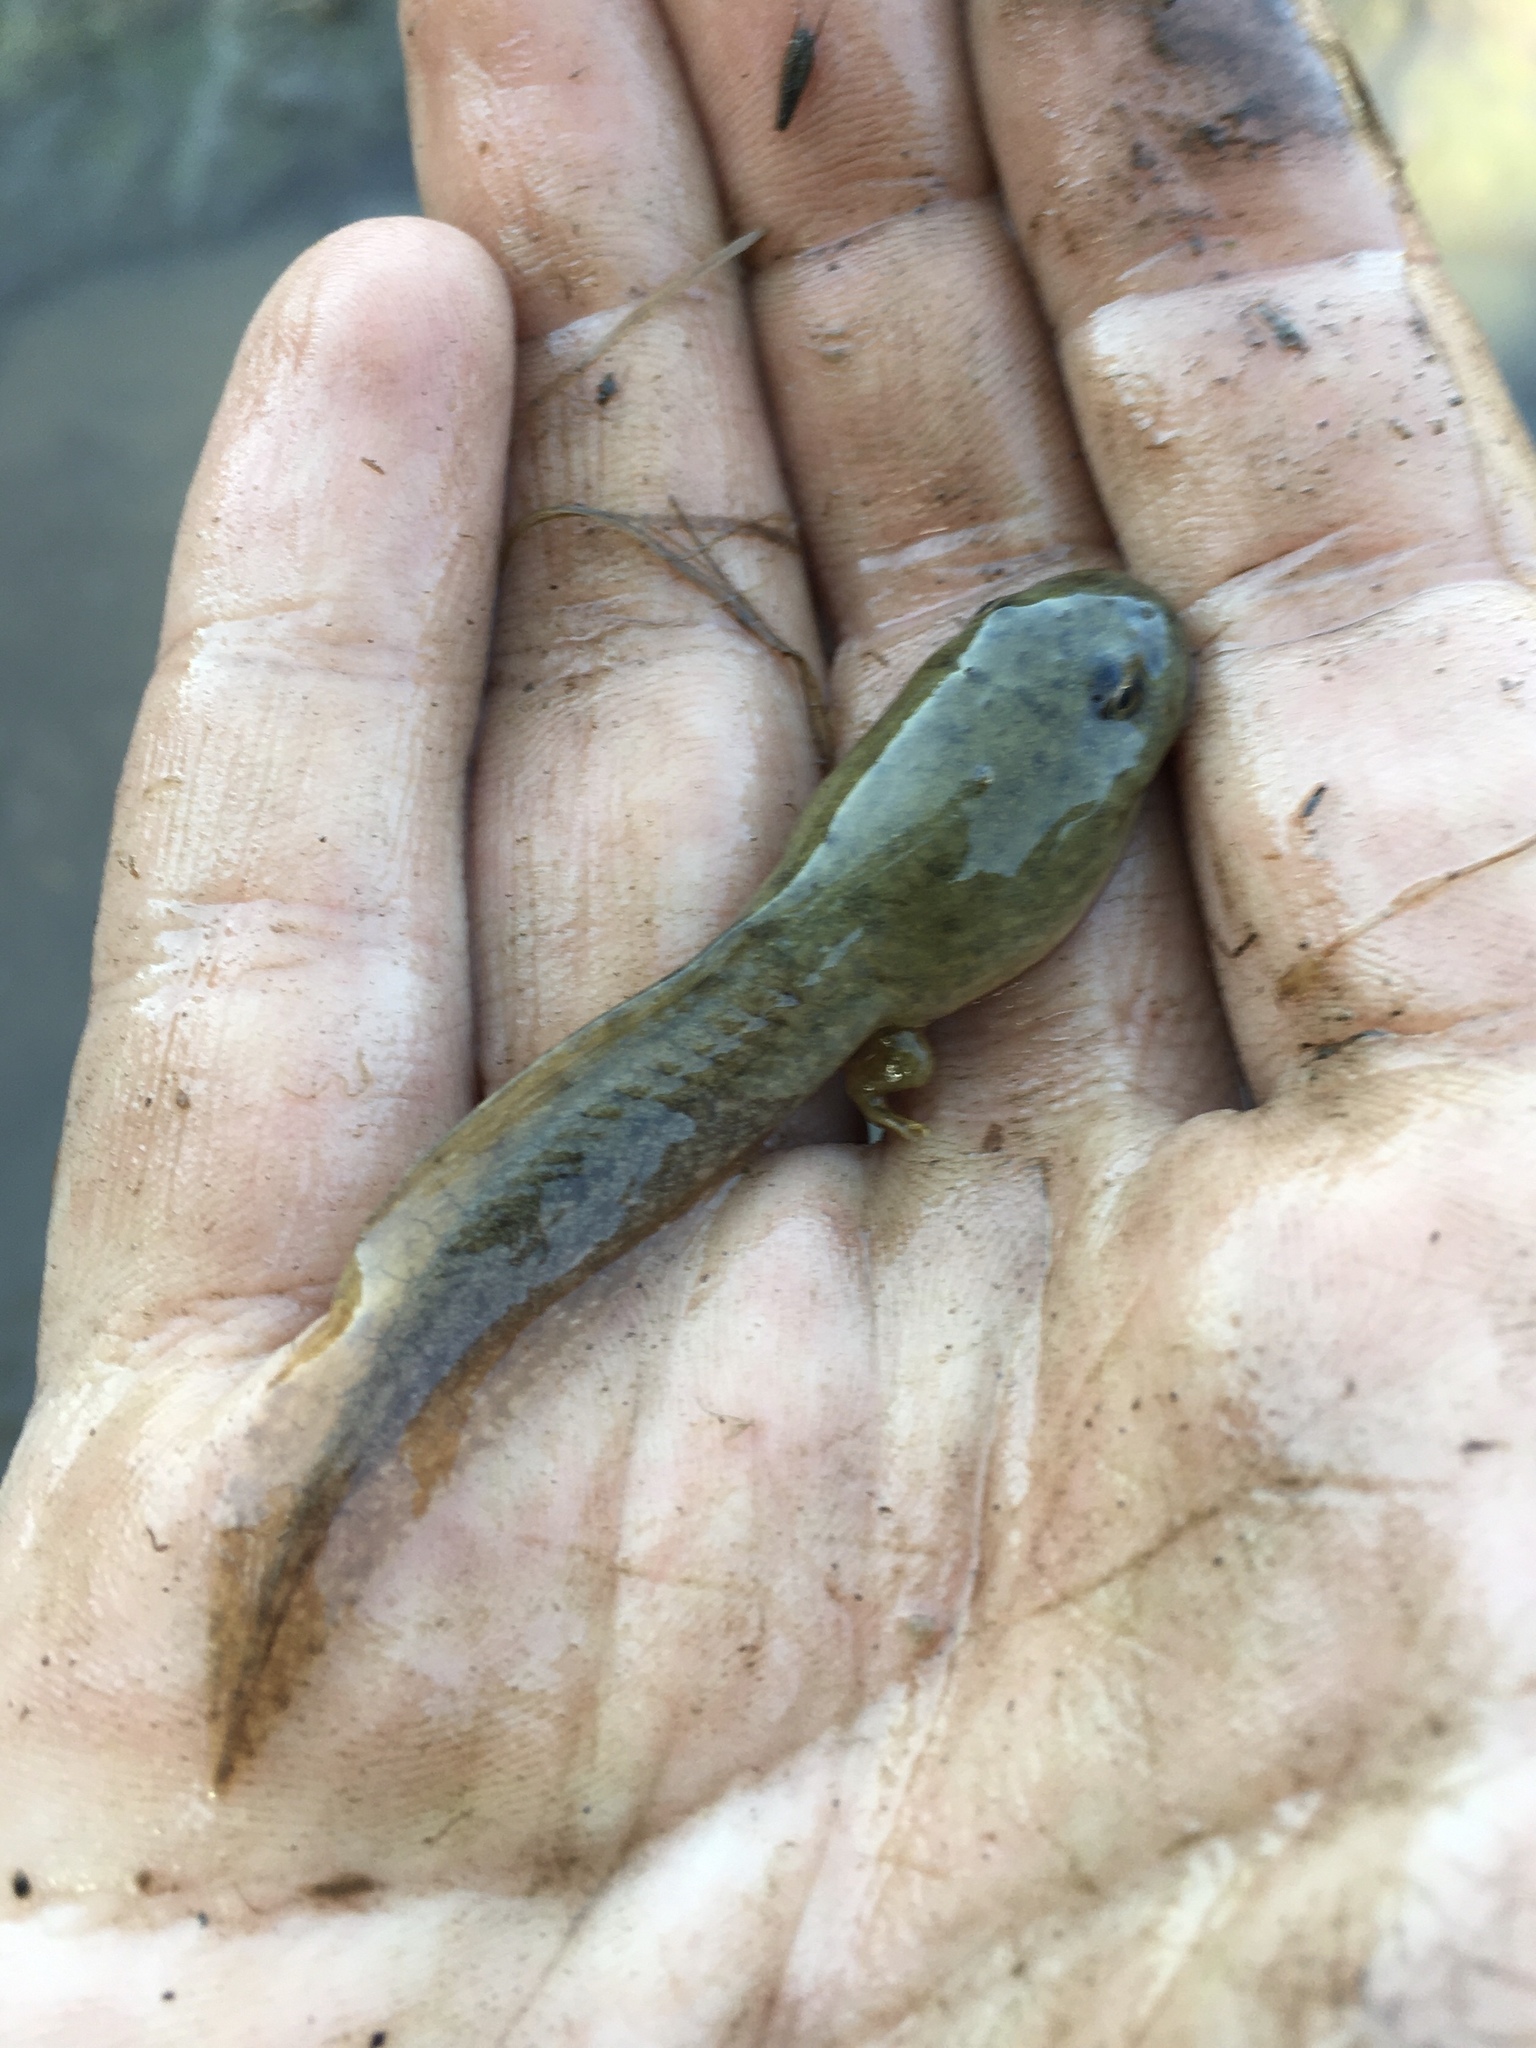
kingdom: Animalia
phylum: Chordata
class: Amphibia
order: Anura
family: Ranidae
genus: Lithobates
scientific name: Lithobates clamitans
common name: Green frog
